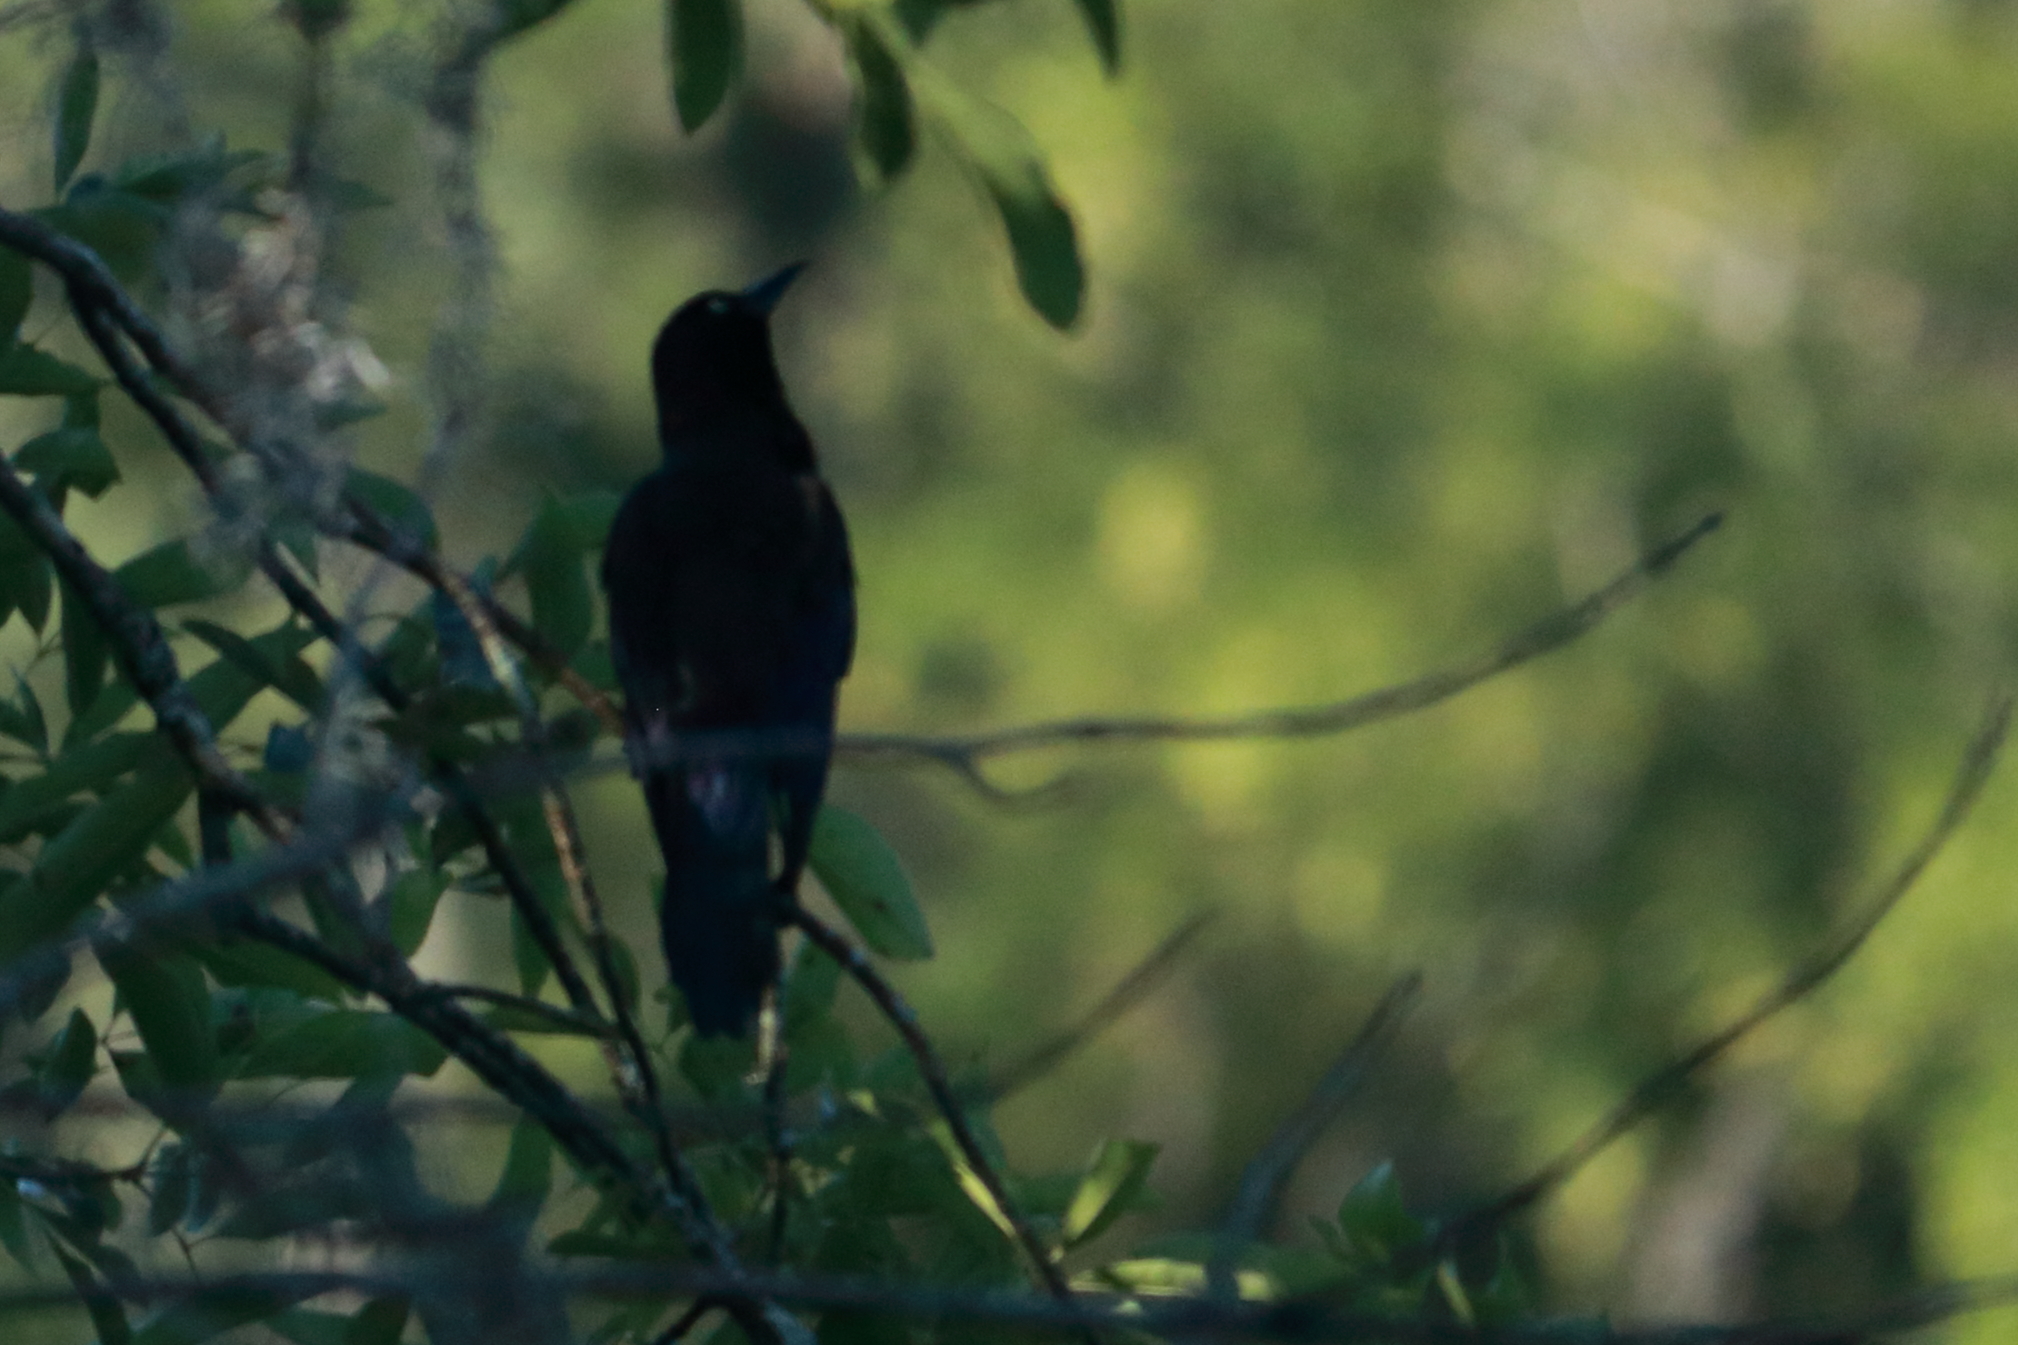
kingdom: Animalia
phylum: Chordata
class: Aves
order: Passeriformes
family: Icteridae
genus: Quiscalus
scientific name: Quiscalus major
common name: Boat-tailed grackle
